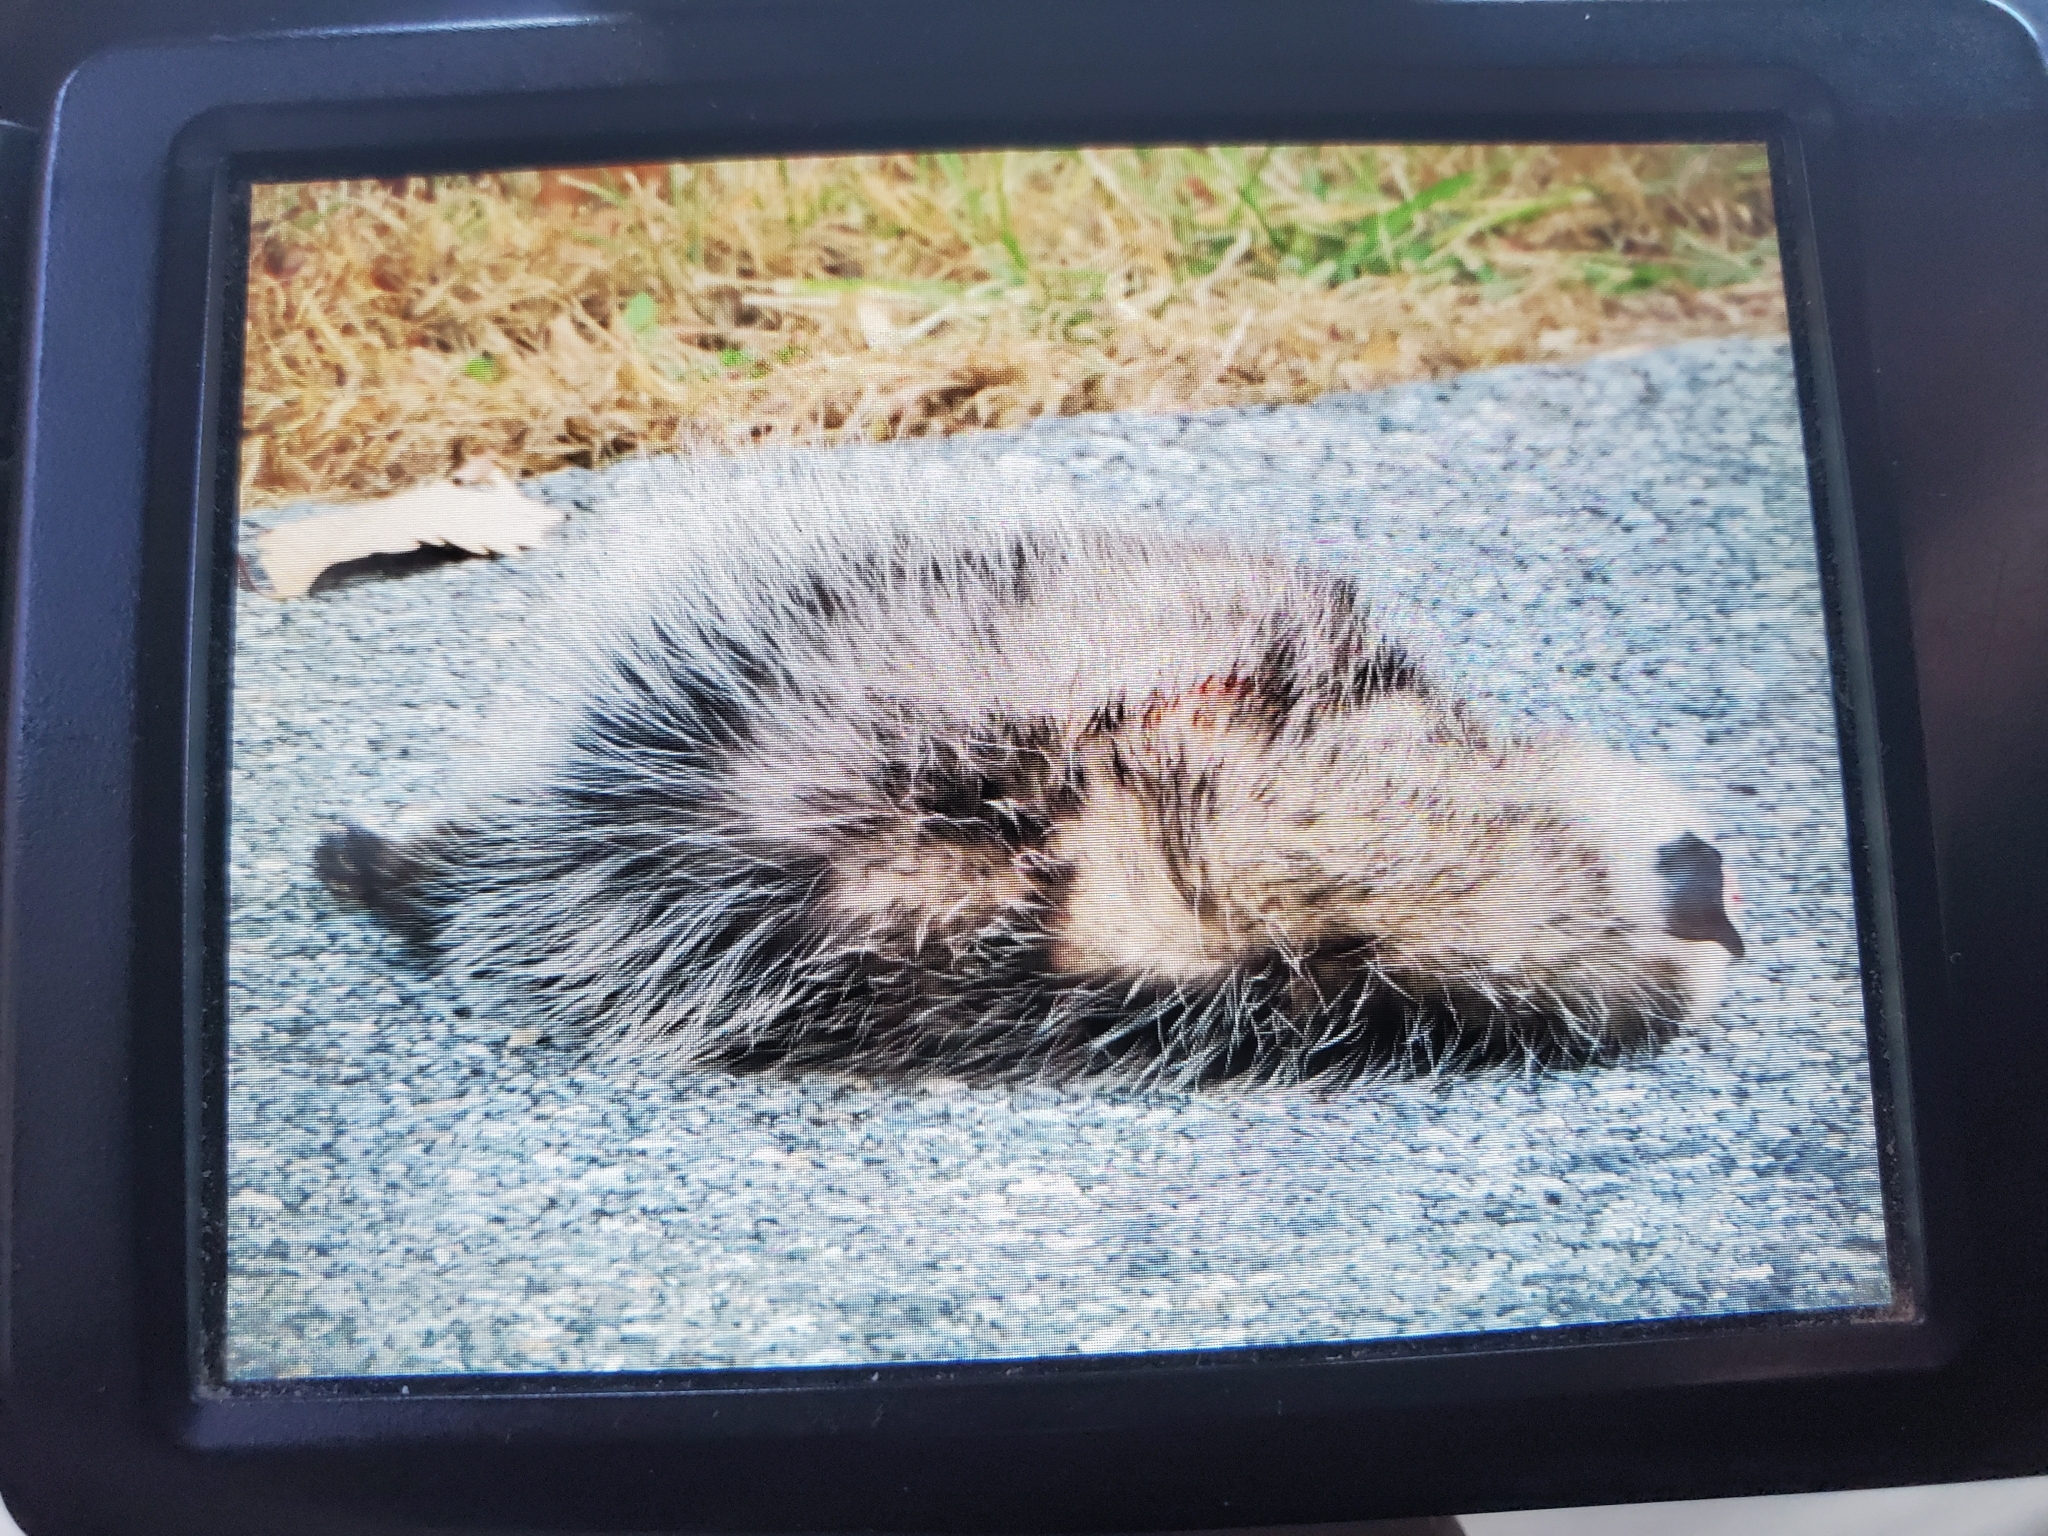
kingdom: Animalia
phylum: Chordata
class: Mammalia
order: Didelphimorphia
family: Didelphidae
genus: Didelphis
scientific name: Didelphis virginiana
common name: Virginia opossum
